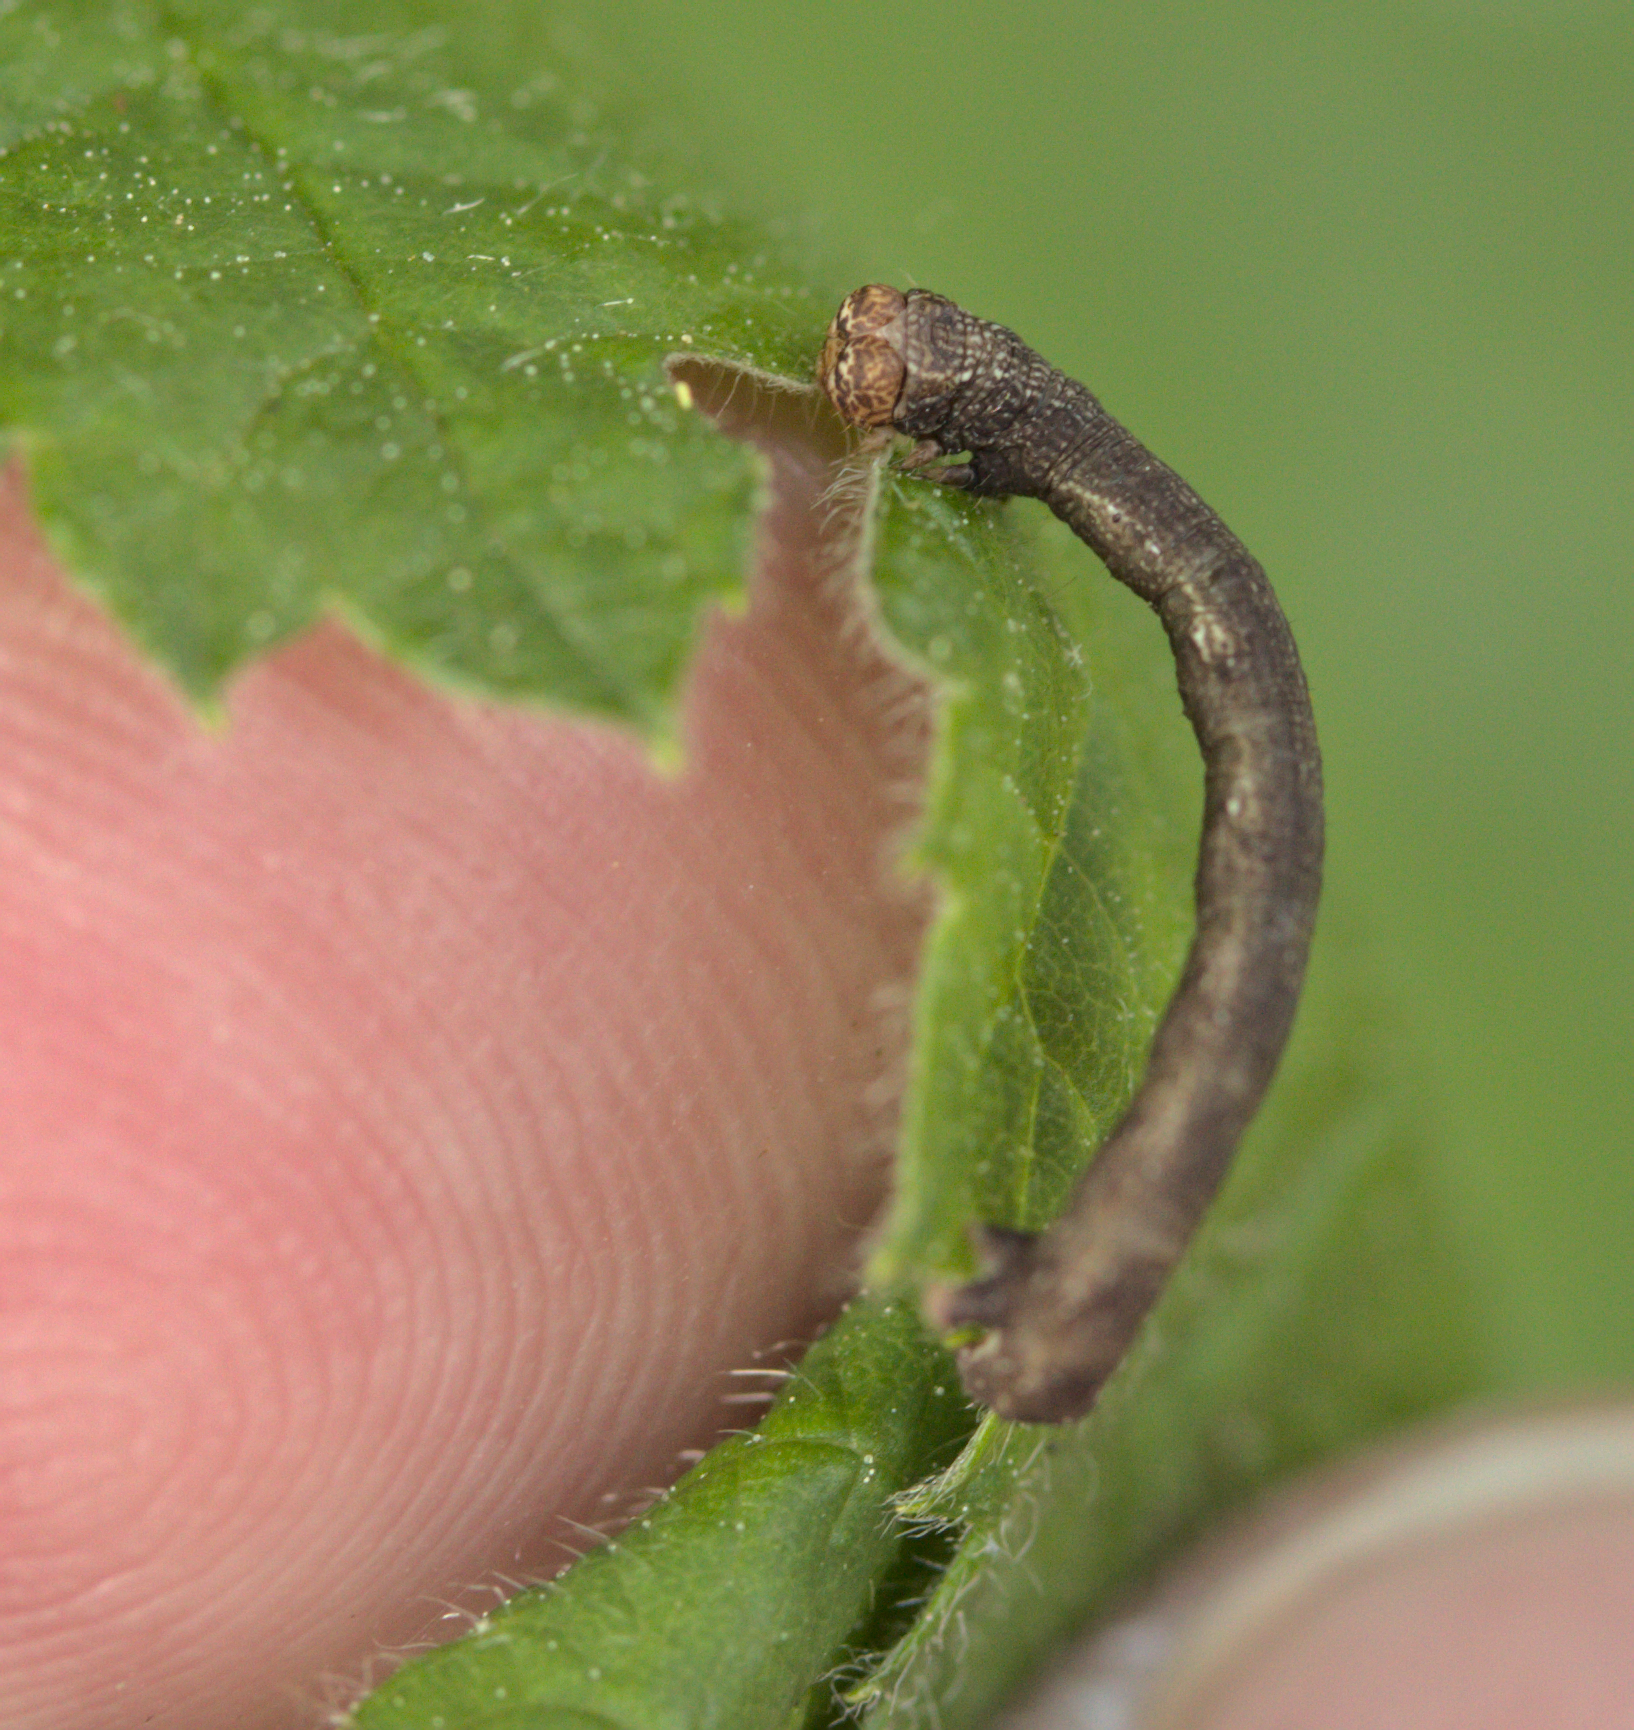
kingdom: Animalia
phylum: Arthropoda
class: Insecta
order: Lepidoptera
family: Geometridae
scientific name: Geometridae
